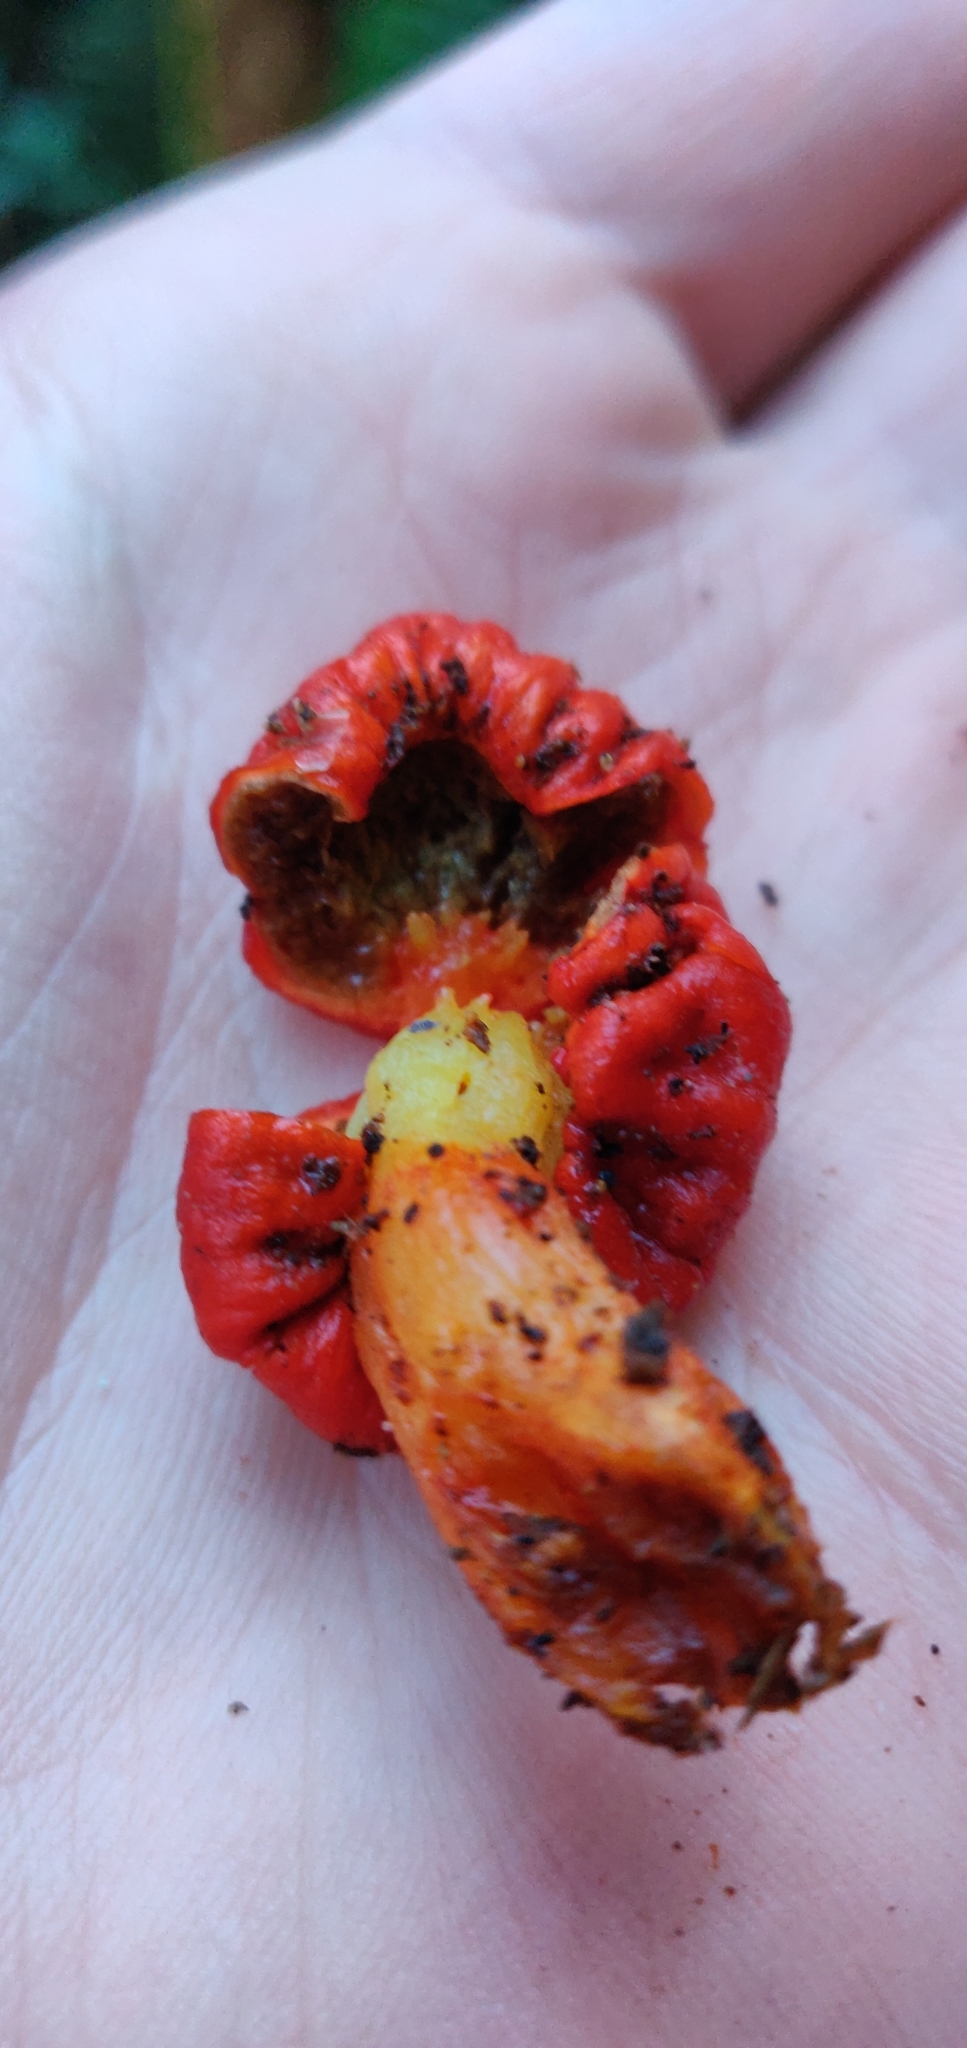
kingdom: Fungi
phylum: Basidiomycota
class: Agaricomycetes
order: Agaricales
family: Strophariaceae
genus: Leratiomyces
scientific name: Leratiomyces erythrocephalus
